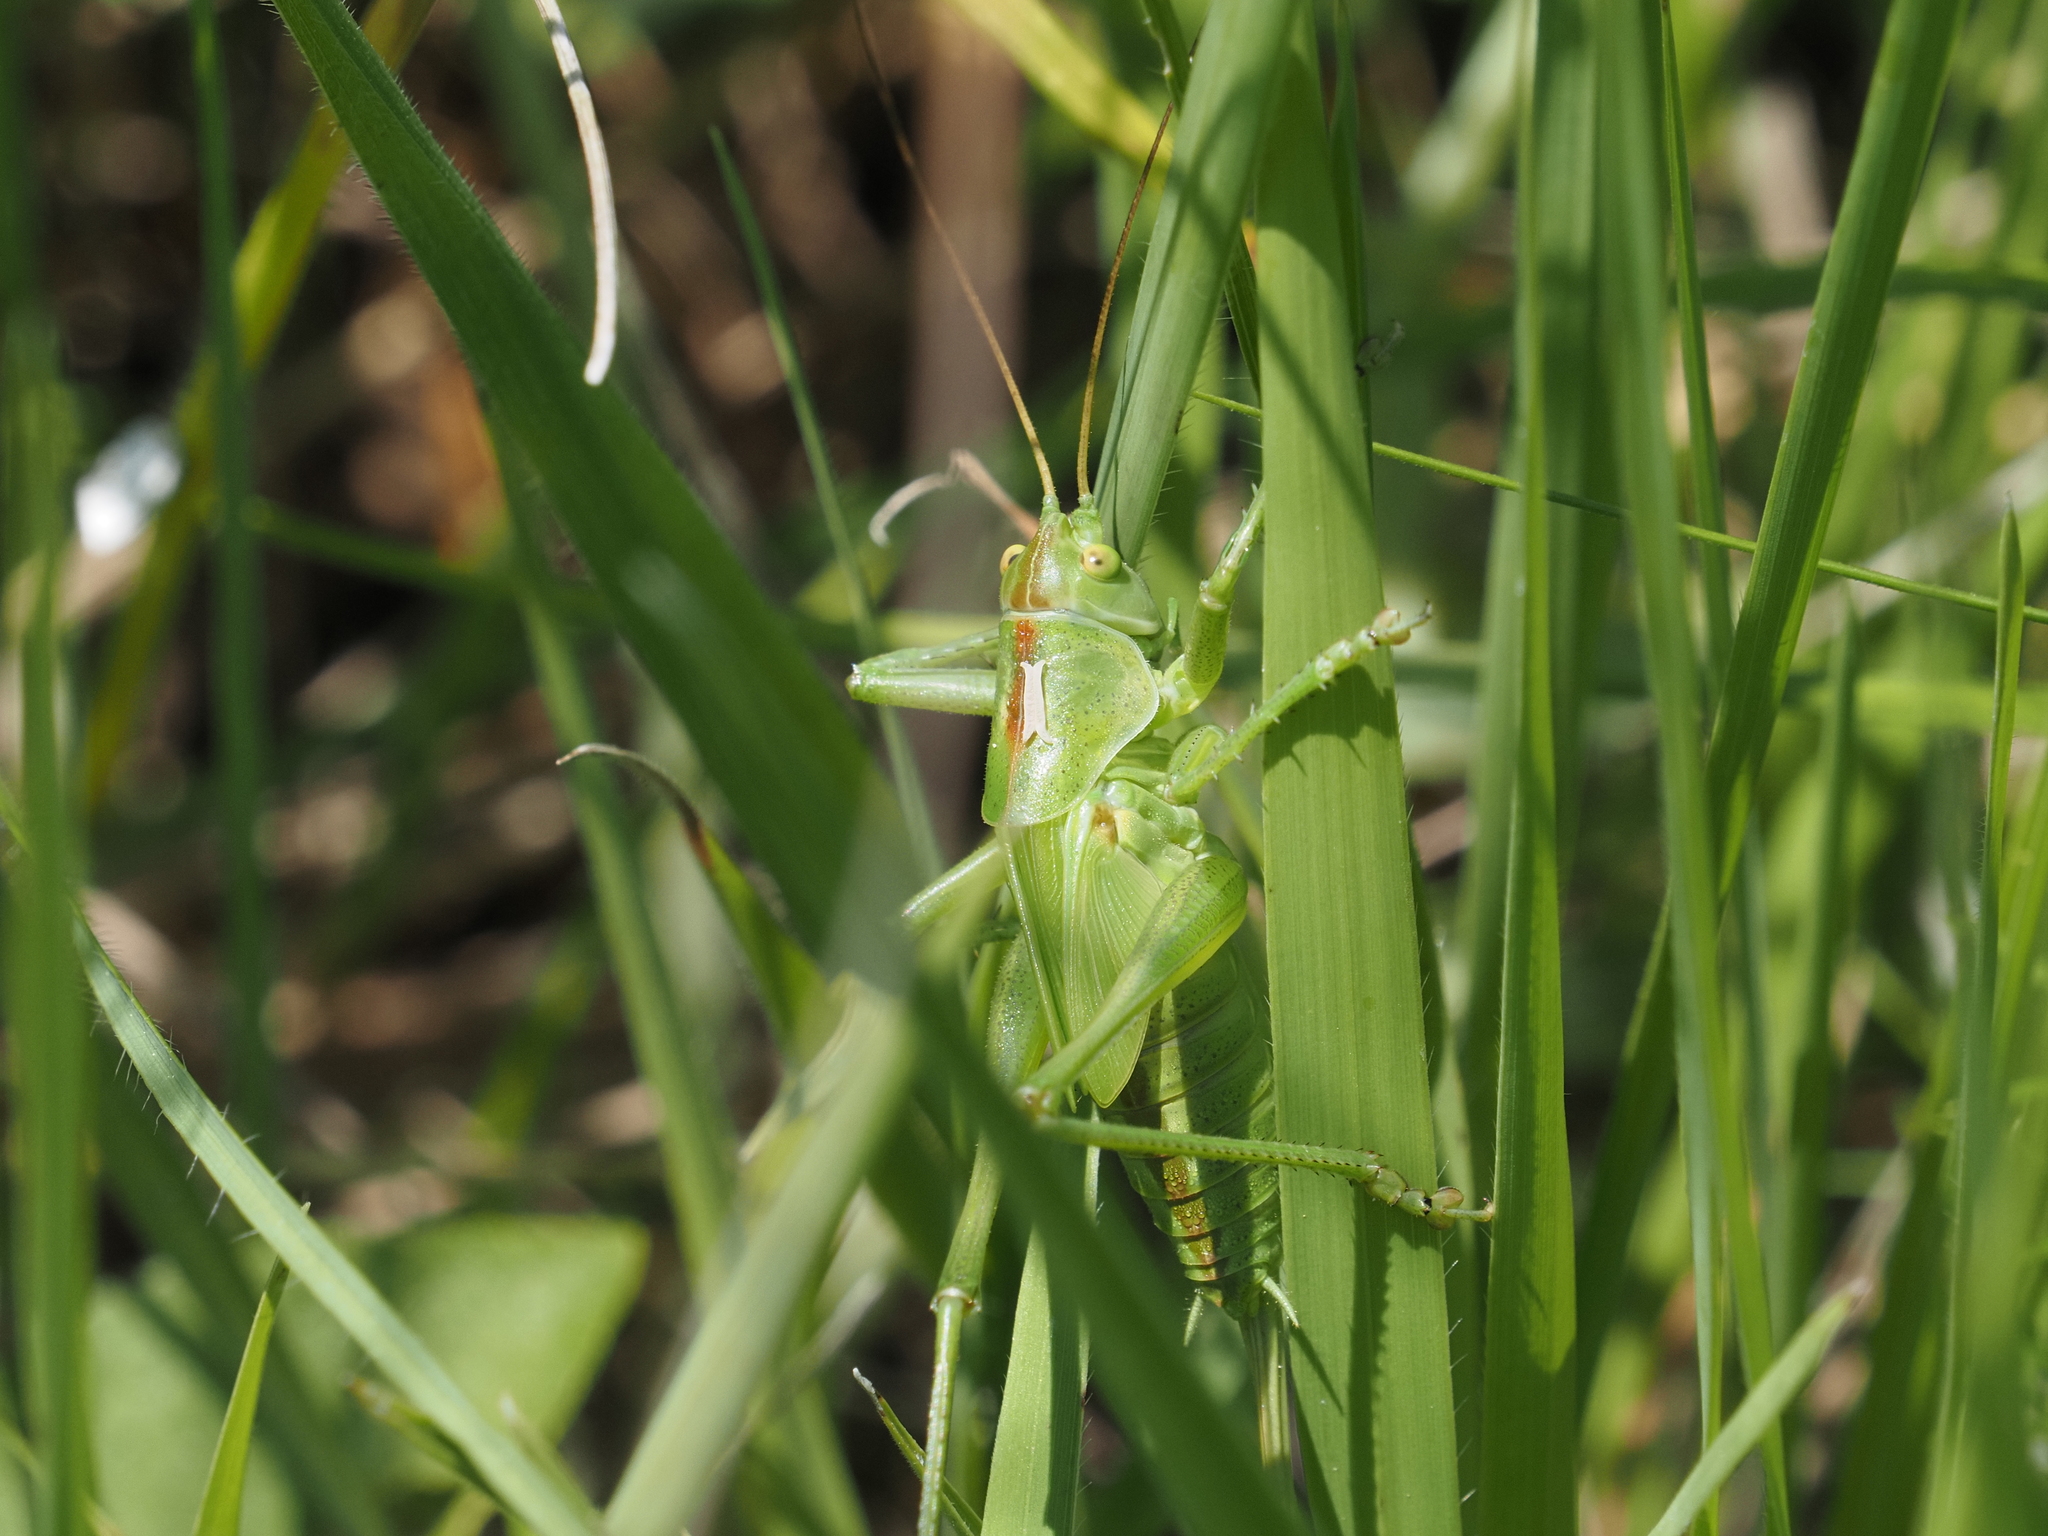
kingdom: Animalia
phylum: Arthropoda
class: Insecta
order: Orthoptera
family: Tettigoniidae
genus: Tettigonia
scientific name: Tettigonia viridissima
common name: Great green bush-cricket
